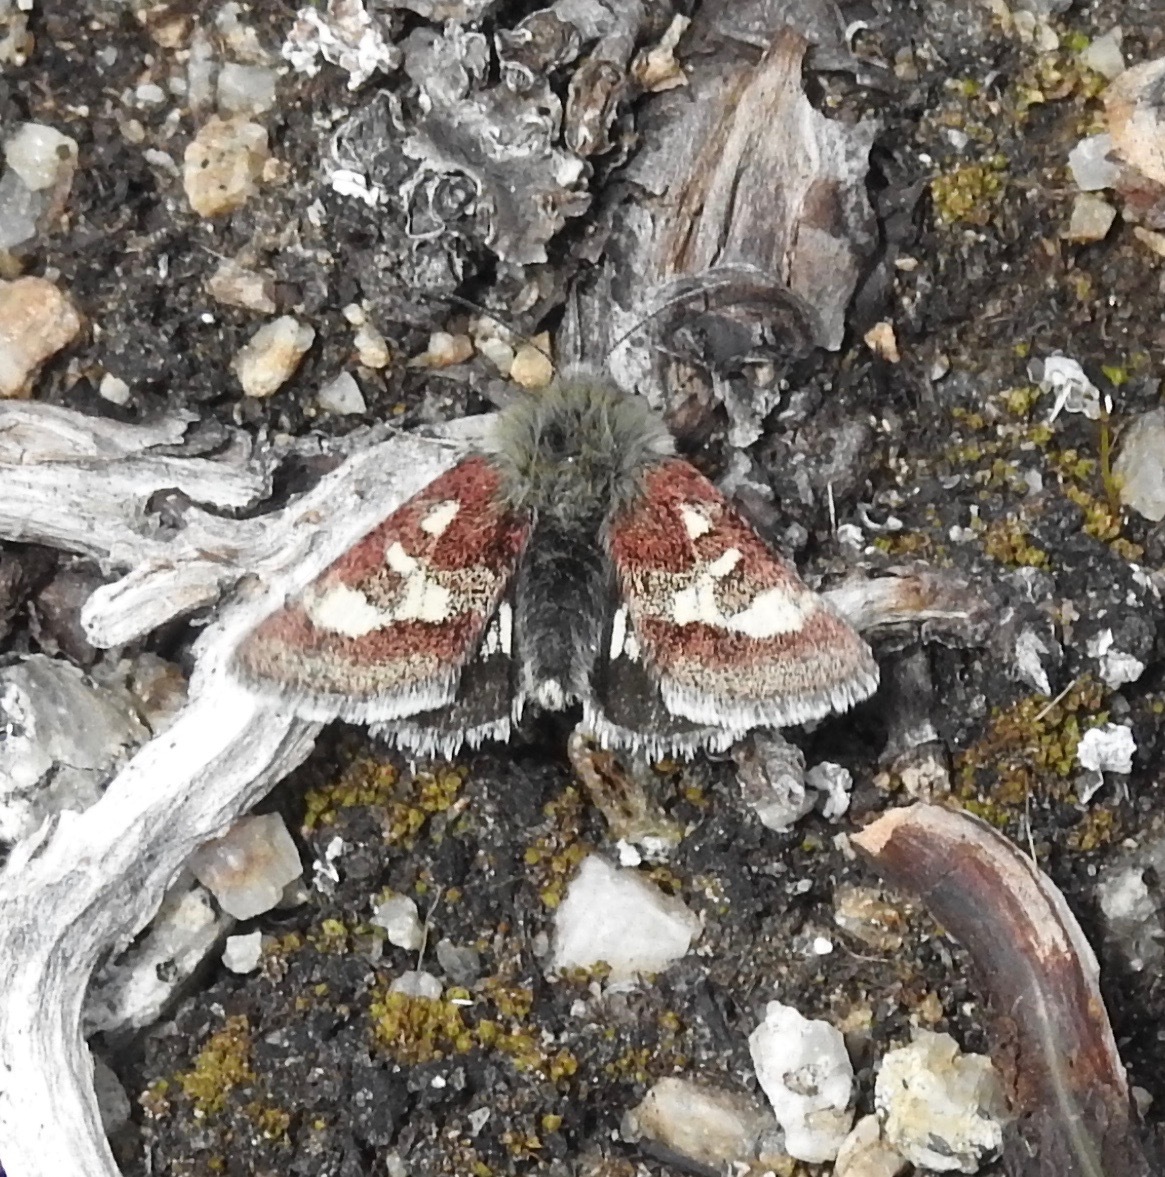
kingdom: Animalia
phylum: Arthropoda
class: Insecta
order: Lepidoptera
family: Noctuidae
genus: Eutricopis
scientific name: Eutricopis nexilis
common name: White-spotted midget moth
